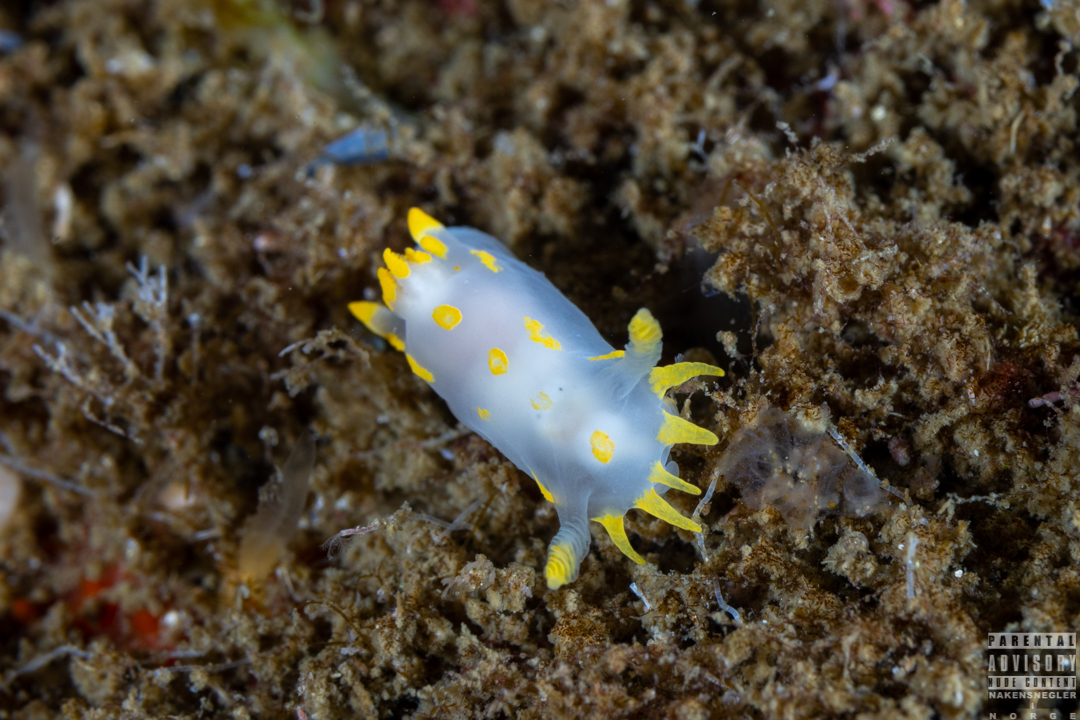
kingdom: Animalia
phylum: Mollusca
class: Gastropoda
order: Nudibranchia
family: Polyceridae
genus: Polycera
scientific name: Polycera quadrilineata
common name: Four-striped polycera
